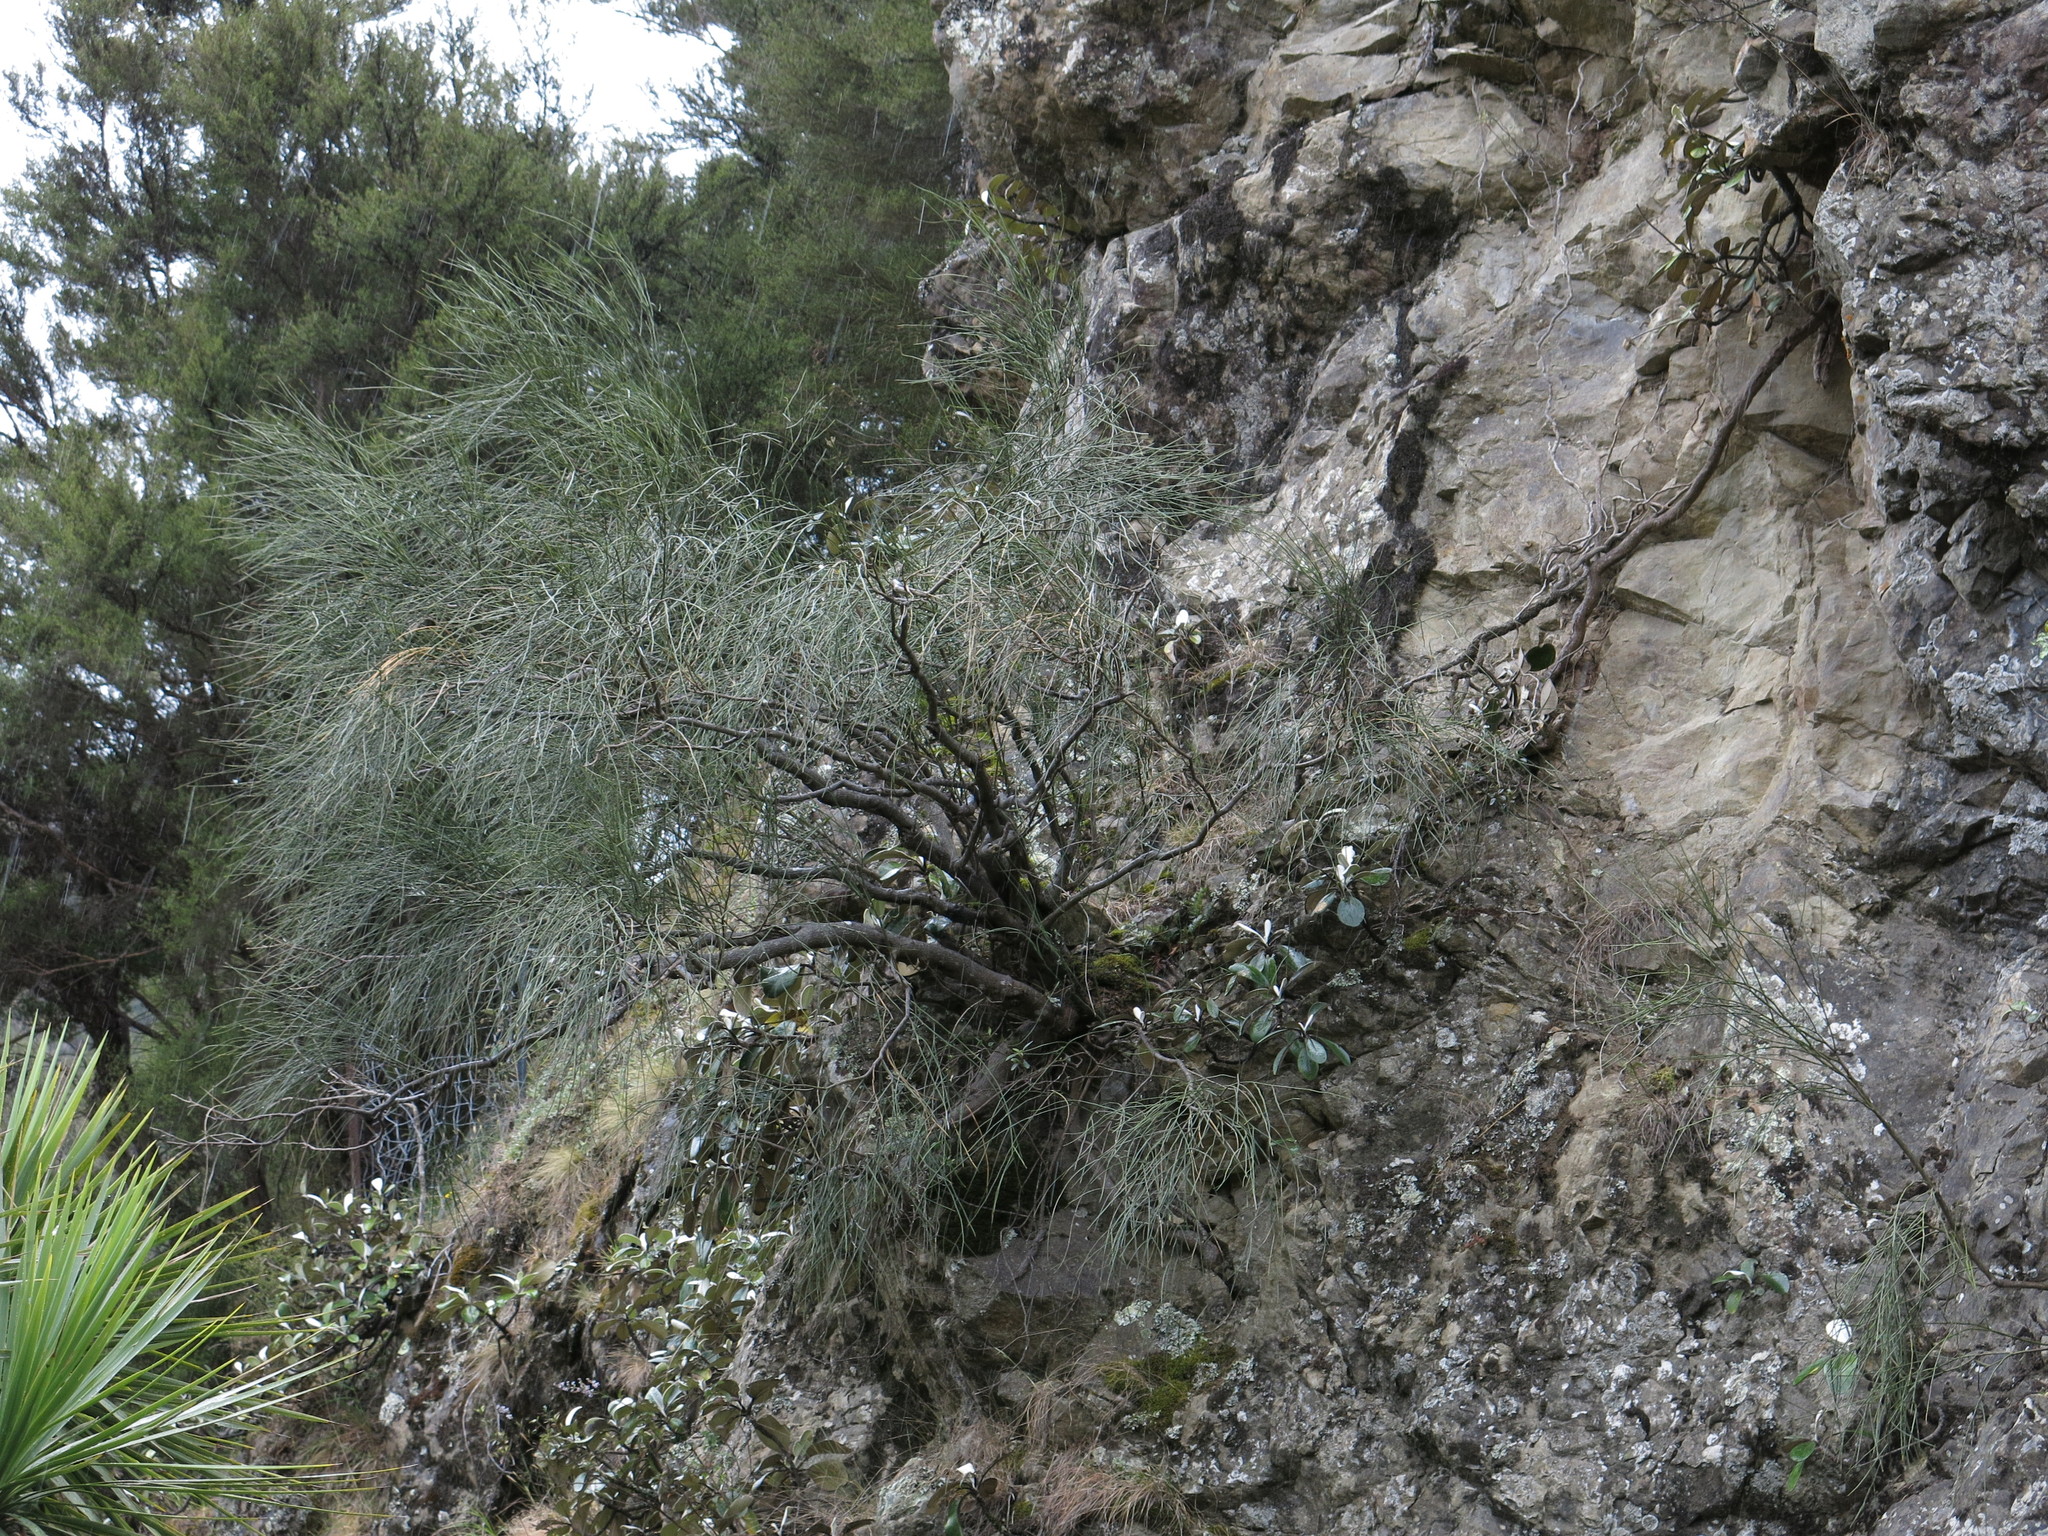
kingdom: Plantae
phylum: Tracheophyta
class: Magnoliopsida
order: Fabales
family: Fabaceae
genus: Carmichaelia
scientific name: Carmichaelia glabrescens
